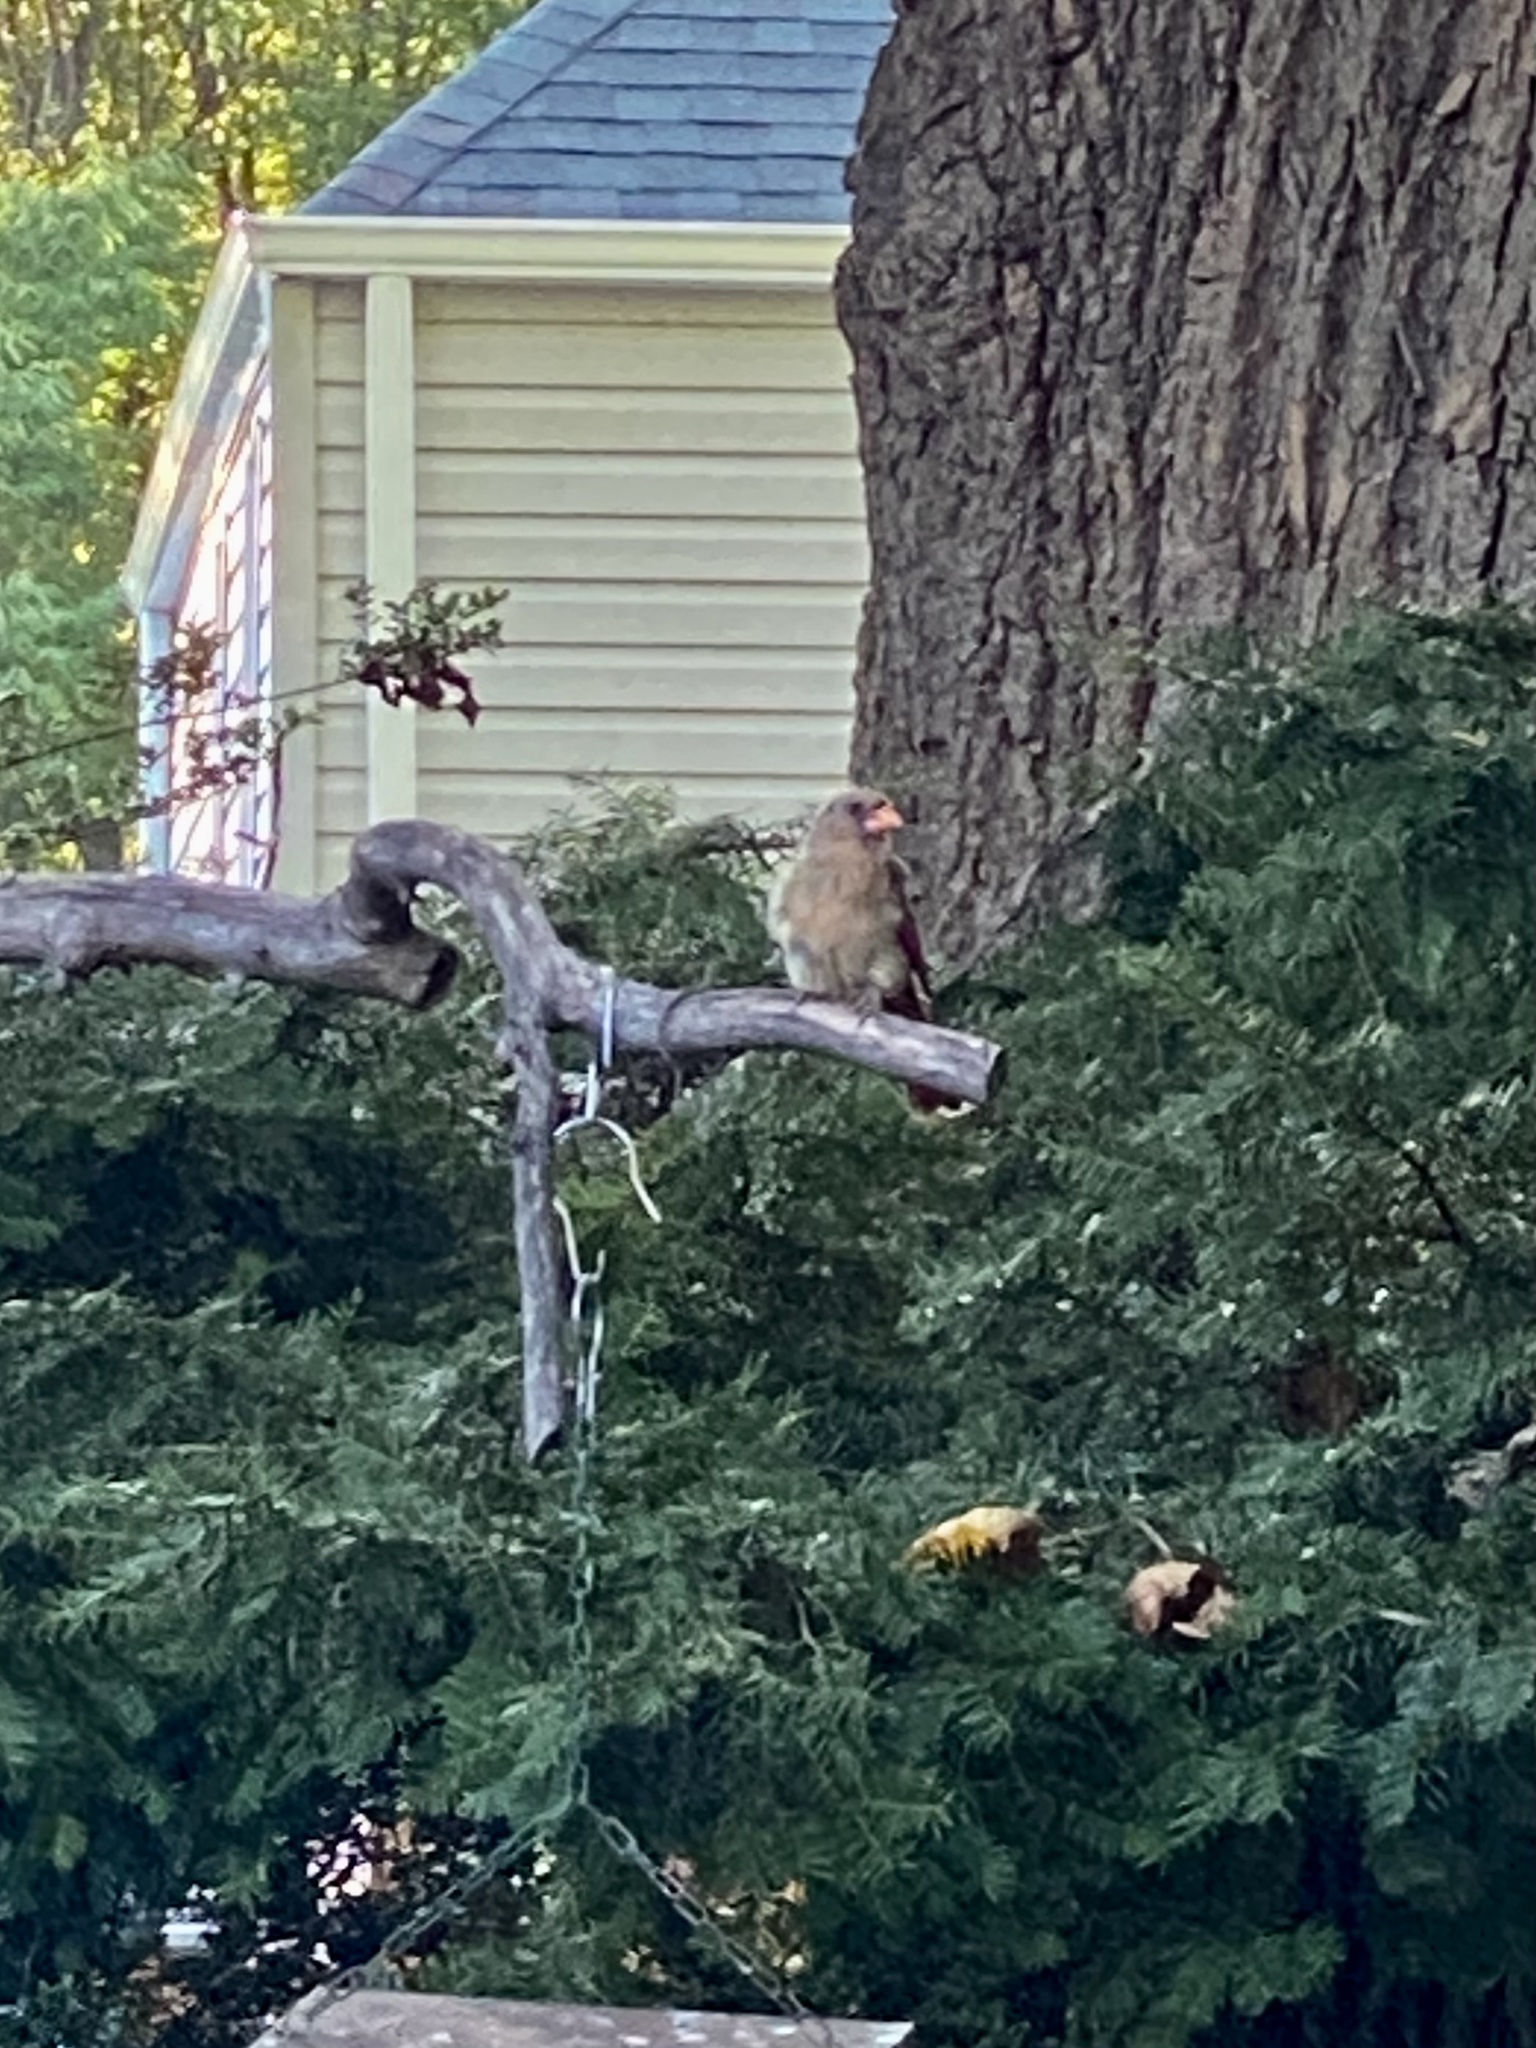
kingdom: Animalia
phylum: Chordata
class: Aves
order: Passeriformes
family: Cardinalidae
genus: Cardinalis
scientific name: Cardinalis cardinalis
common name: Northern cardinal
